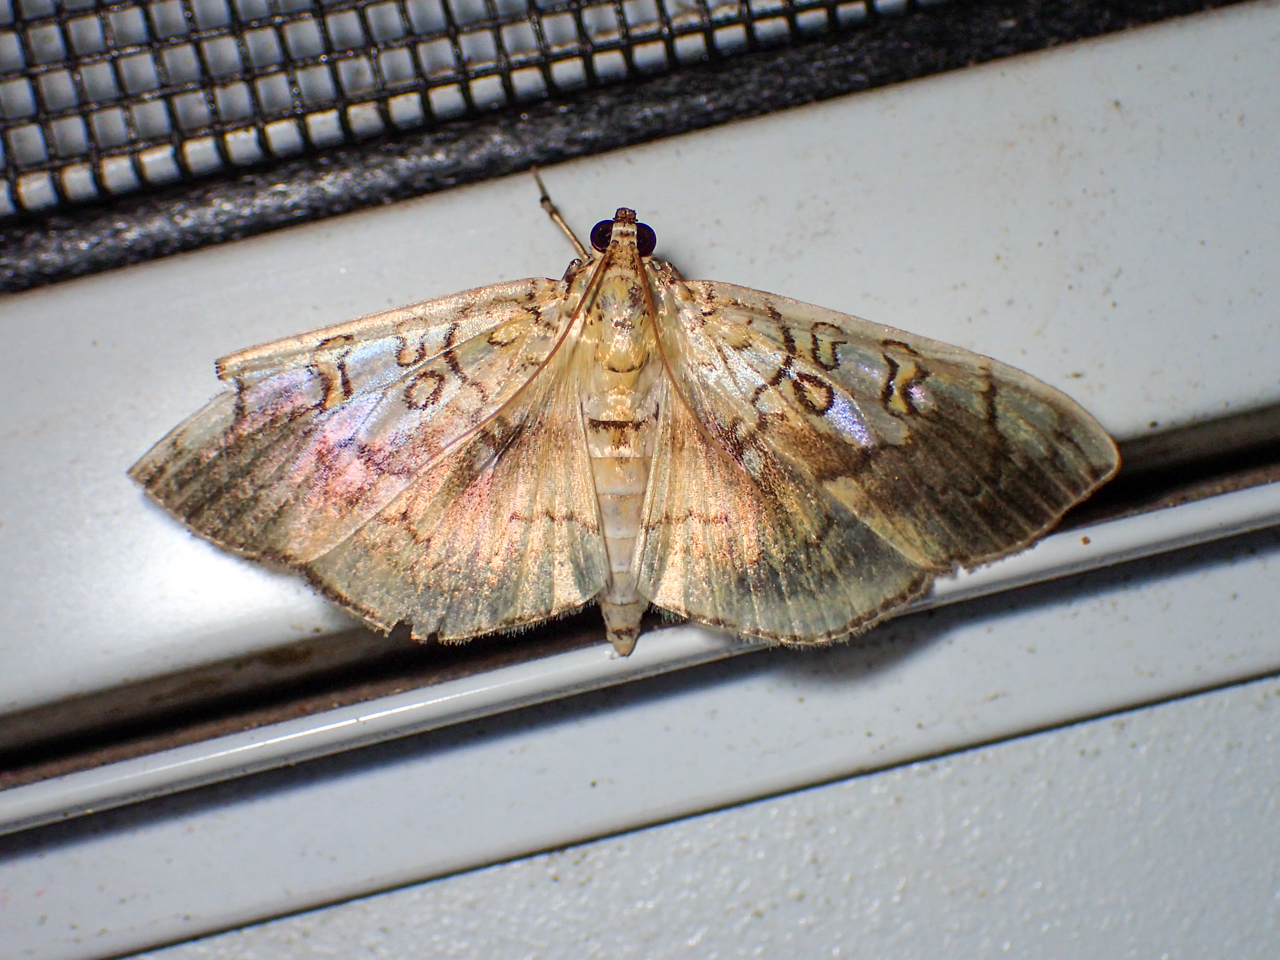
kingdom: Animalia
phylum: Arthropoda
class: Insecta
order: Lepidoptera
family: Crambidae
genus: Pantographa
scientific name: Pantographa limata
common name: Basswood leafroller moth
